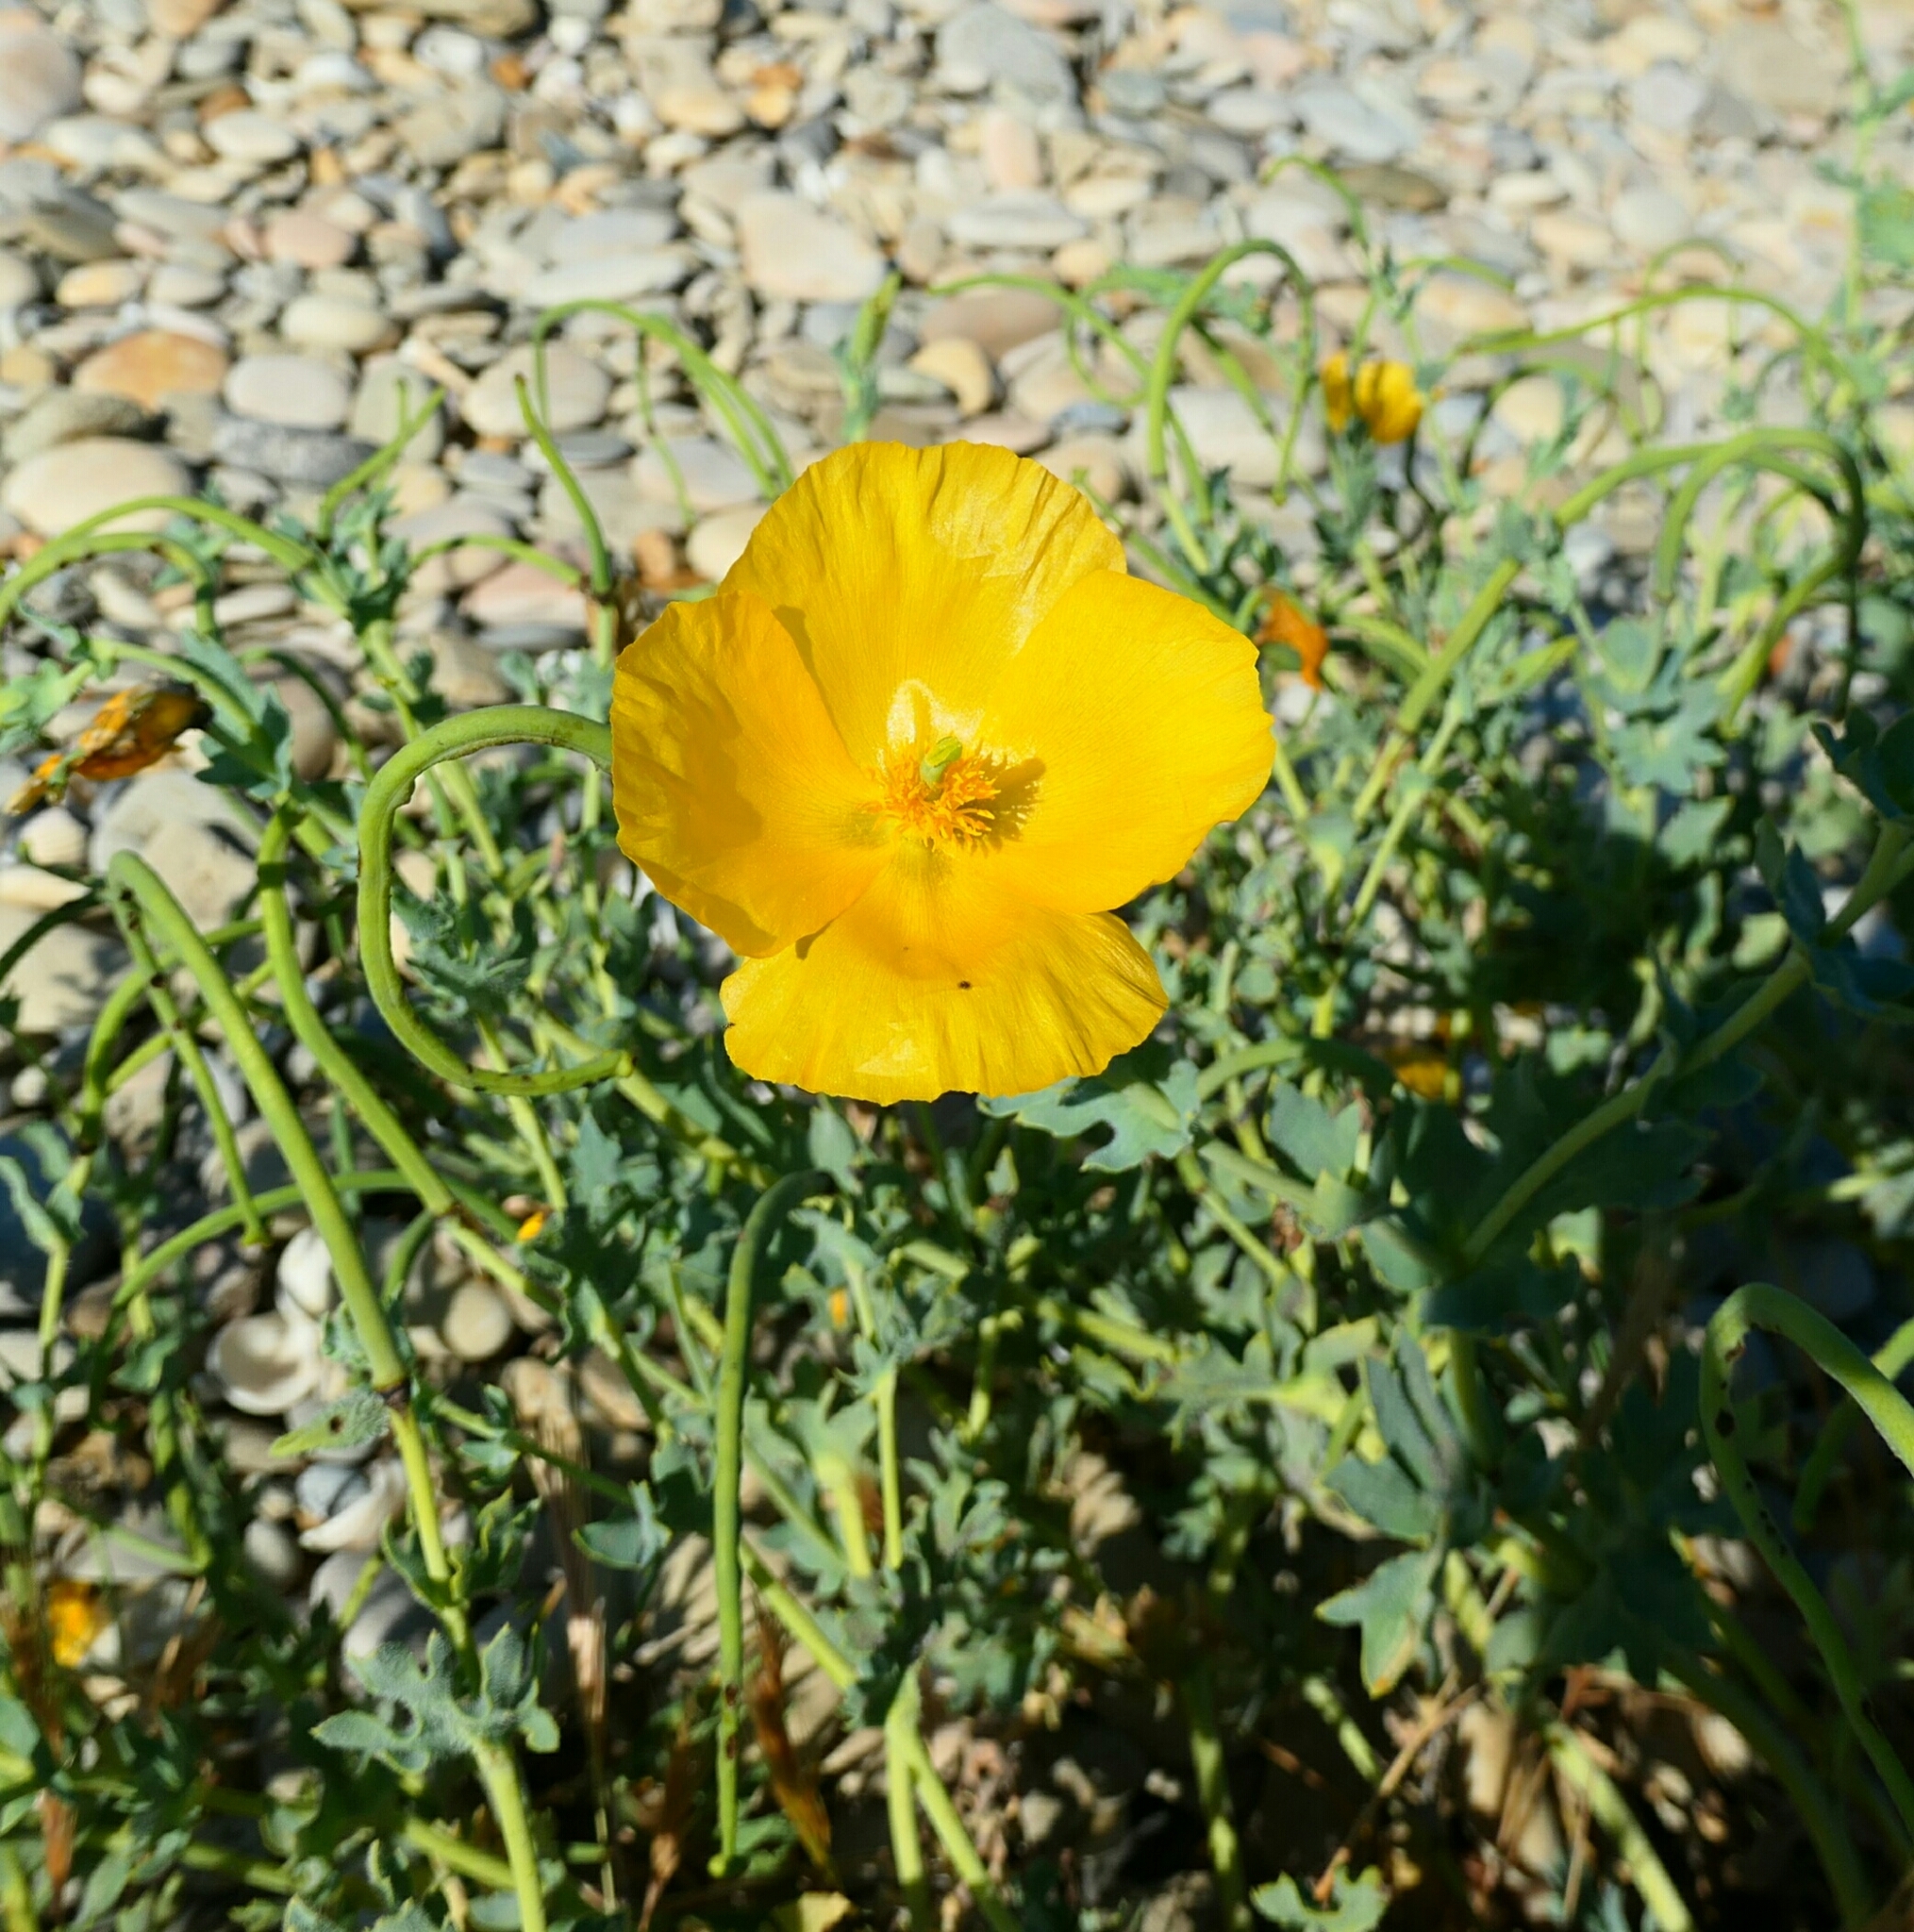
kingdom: Plantae
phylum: Tracheophyta
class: Magnoliopsida
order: Ranunculales
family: Papaveraceae
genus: Glaucium
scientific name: Glaucium flavum
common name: Yellow horned-poppy
